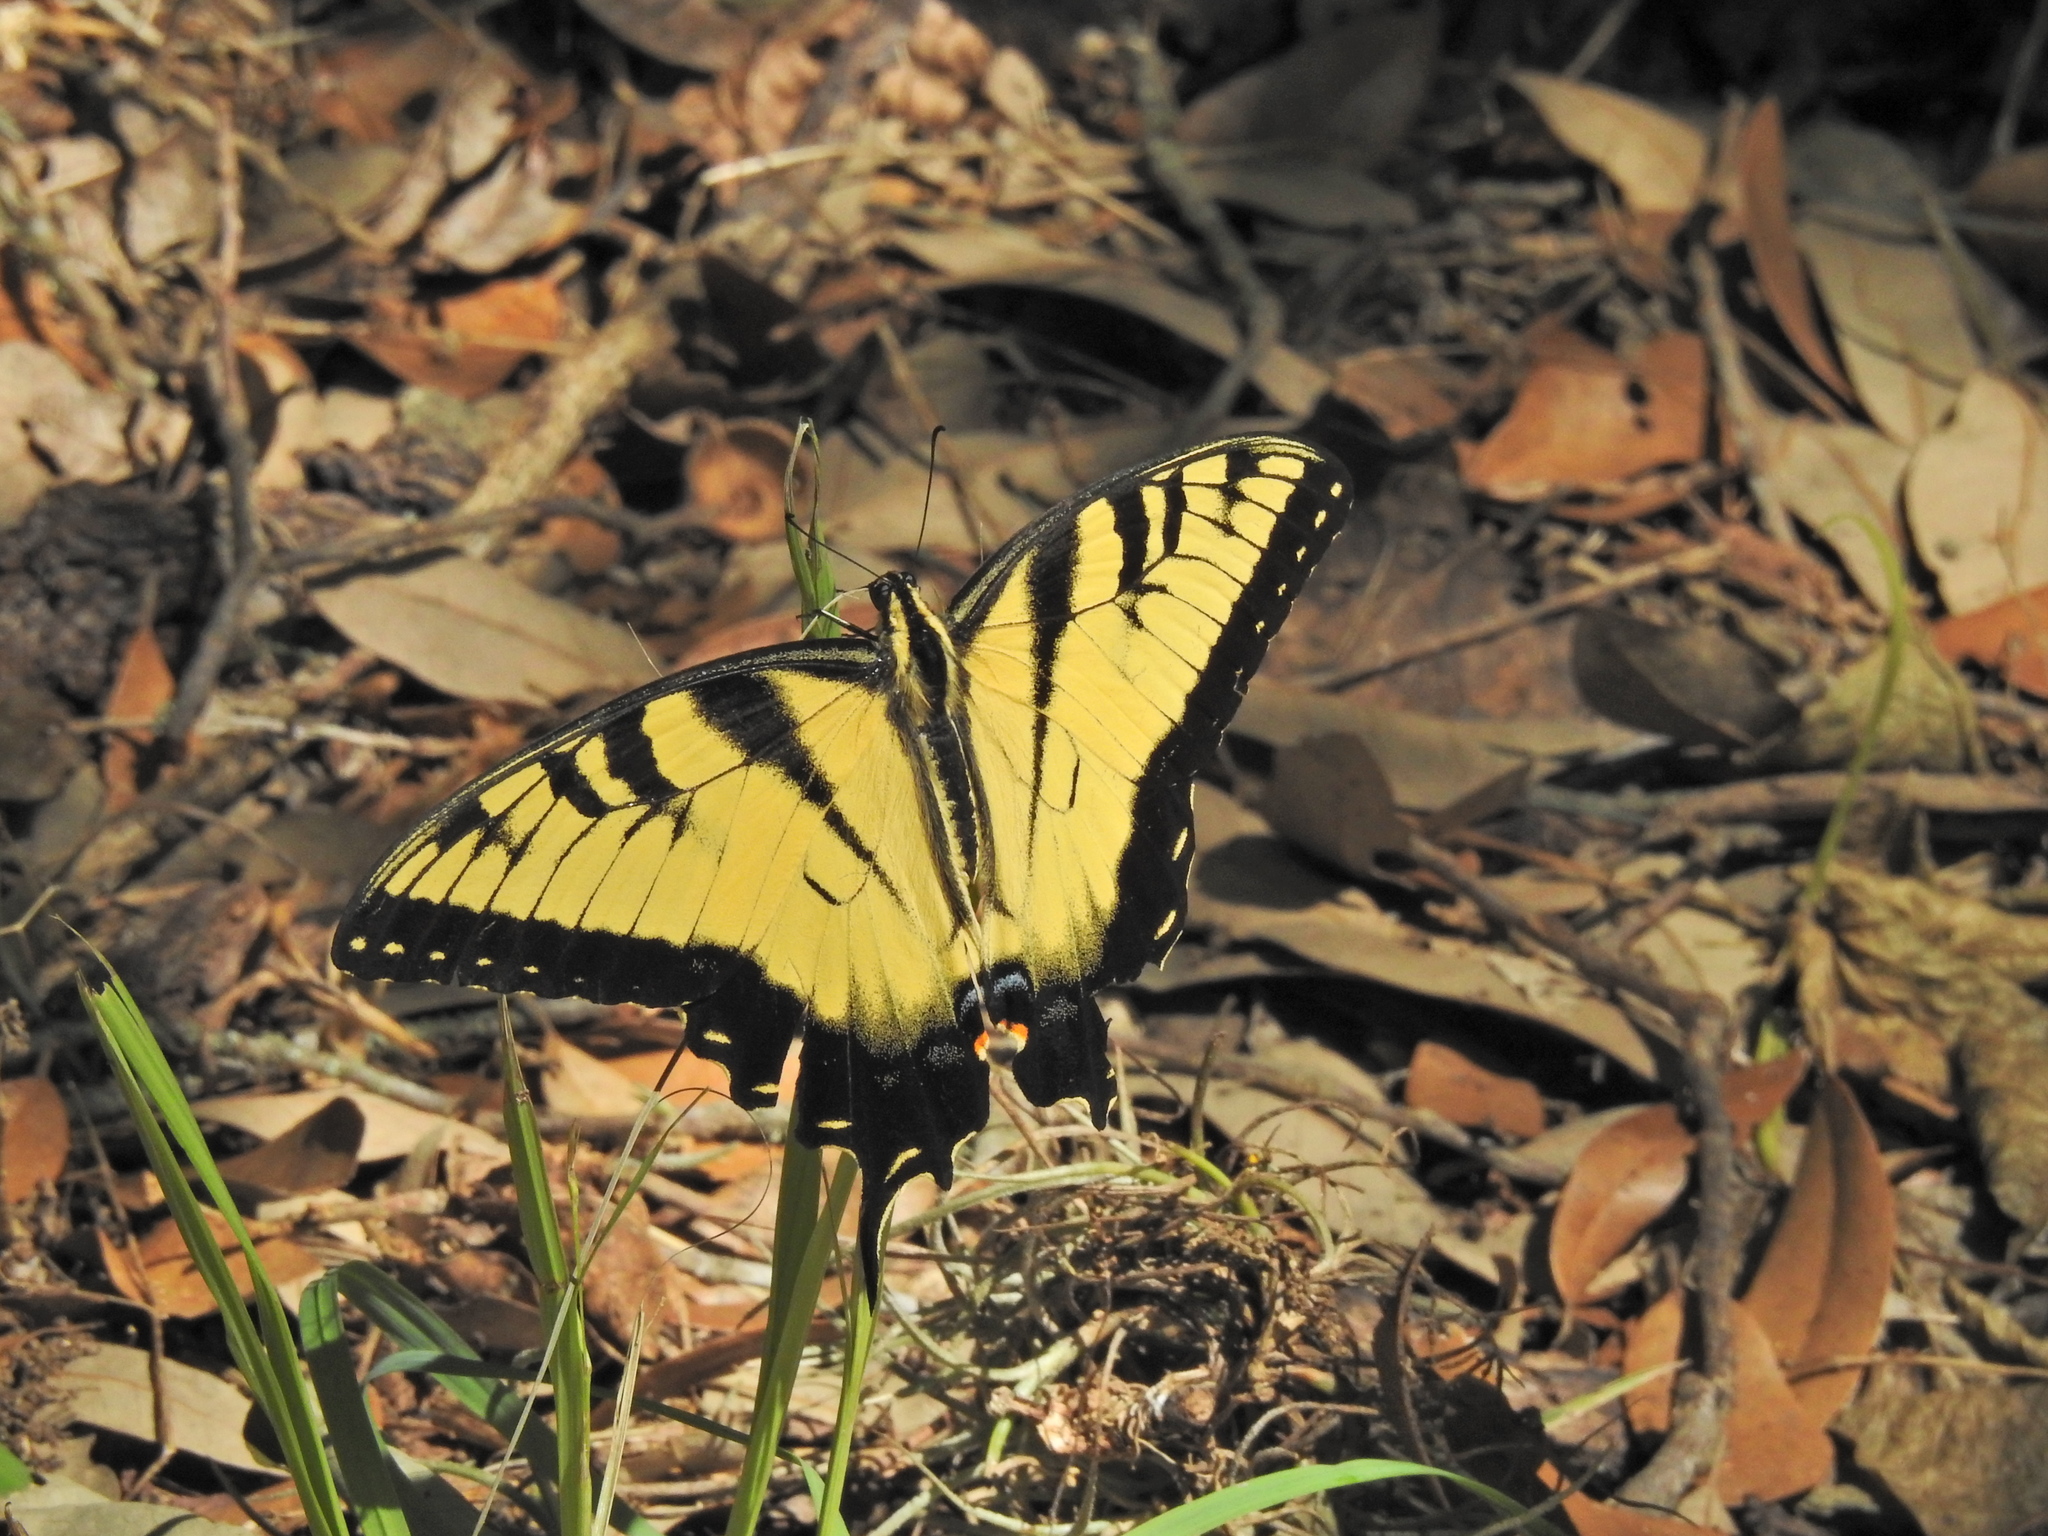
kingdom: Animalia
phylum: Arthropoda
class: Insecta
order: Lepidoptera
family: Papilionidae
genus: Papilio
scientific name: Papilio glaucus
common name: Tiger swallowtail
